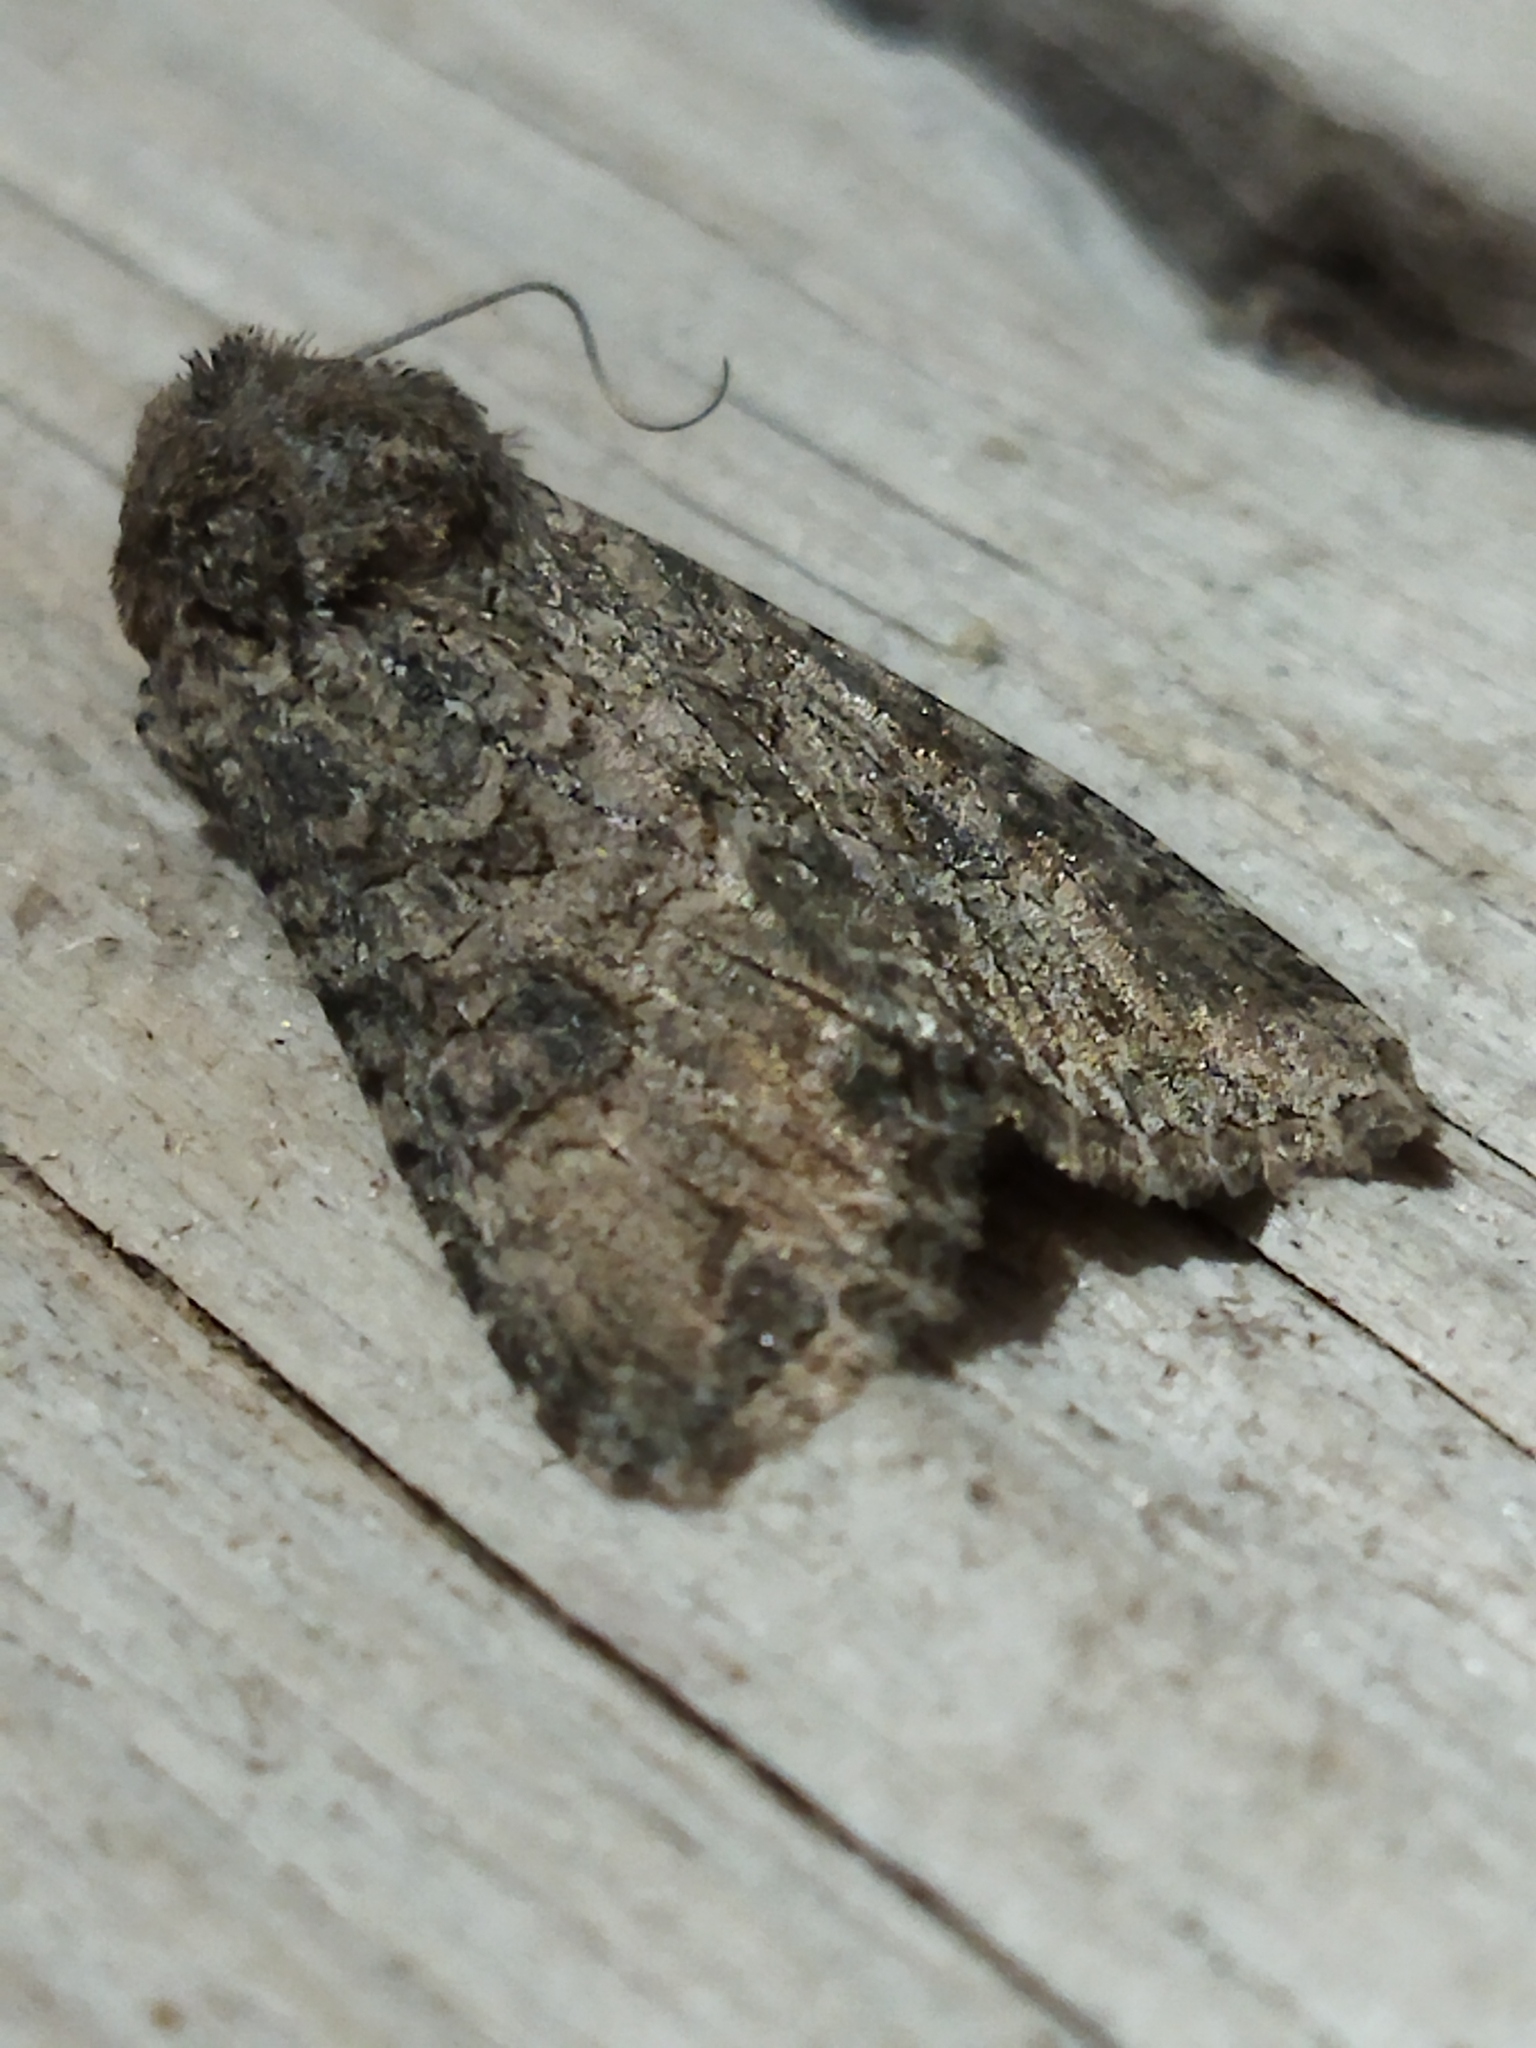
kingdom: Animalia
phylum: Arthropoda
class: Insecta
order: Lepidoptera
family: Noctuidae
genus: Anarta
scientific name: Anarta trifolii
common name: Clover cutworm moth
